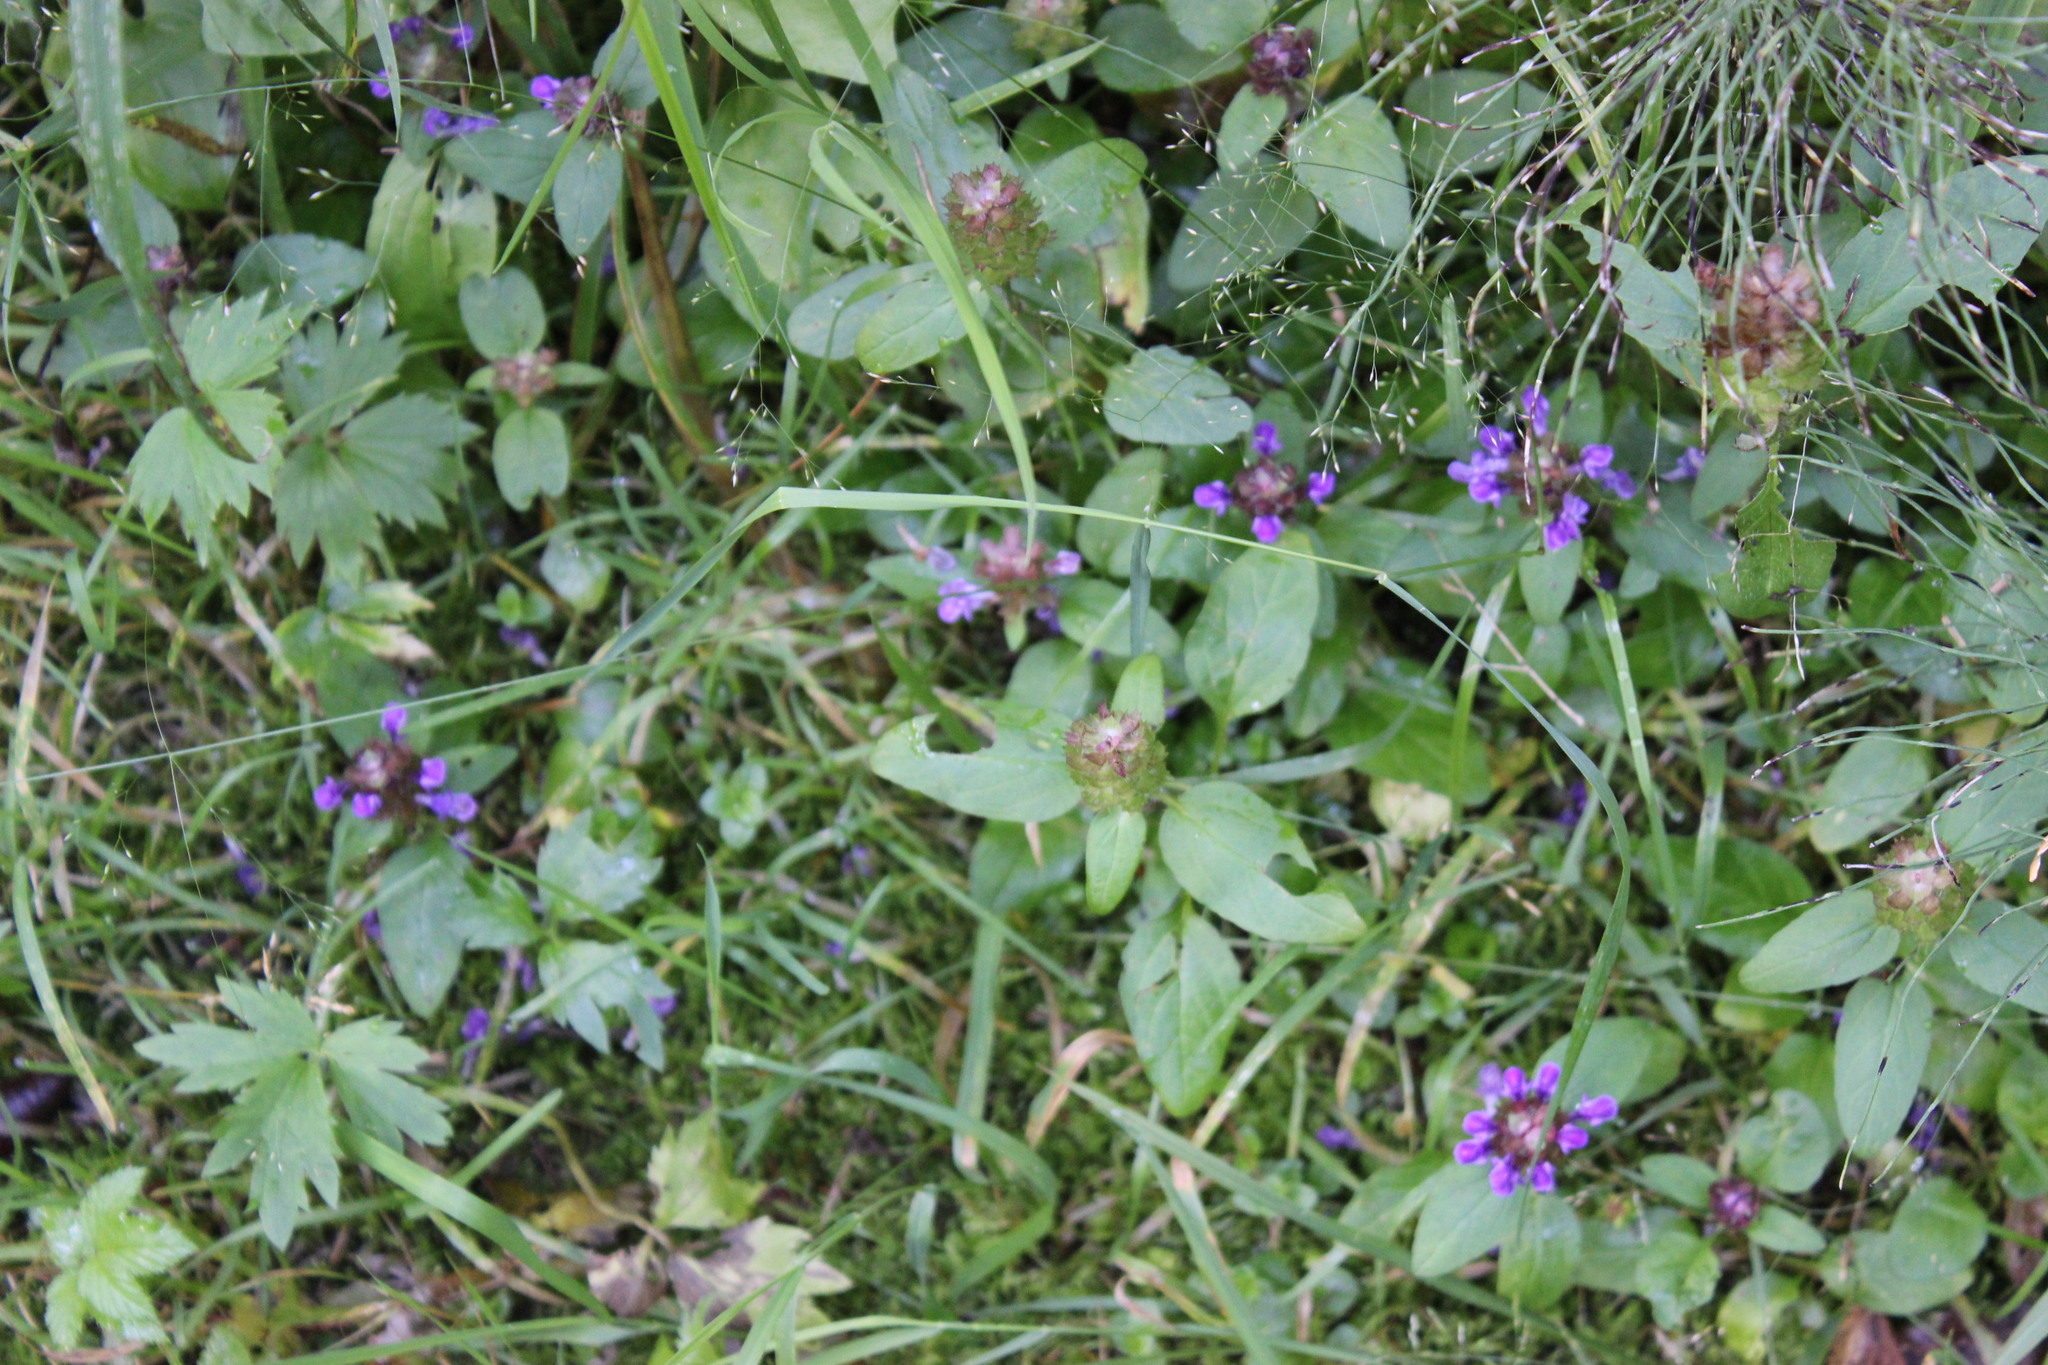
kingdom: Plantae
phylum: Tracheophyta
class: Magnoliopsida
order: Lamiales
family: Lamiaceae
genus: Prunella
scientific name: Prunella vulgaris
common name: Heal-all
